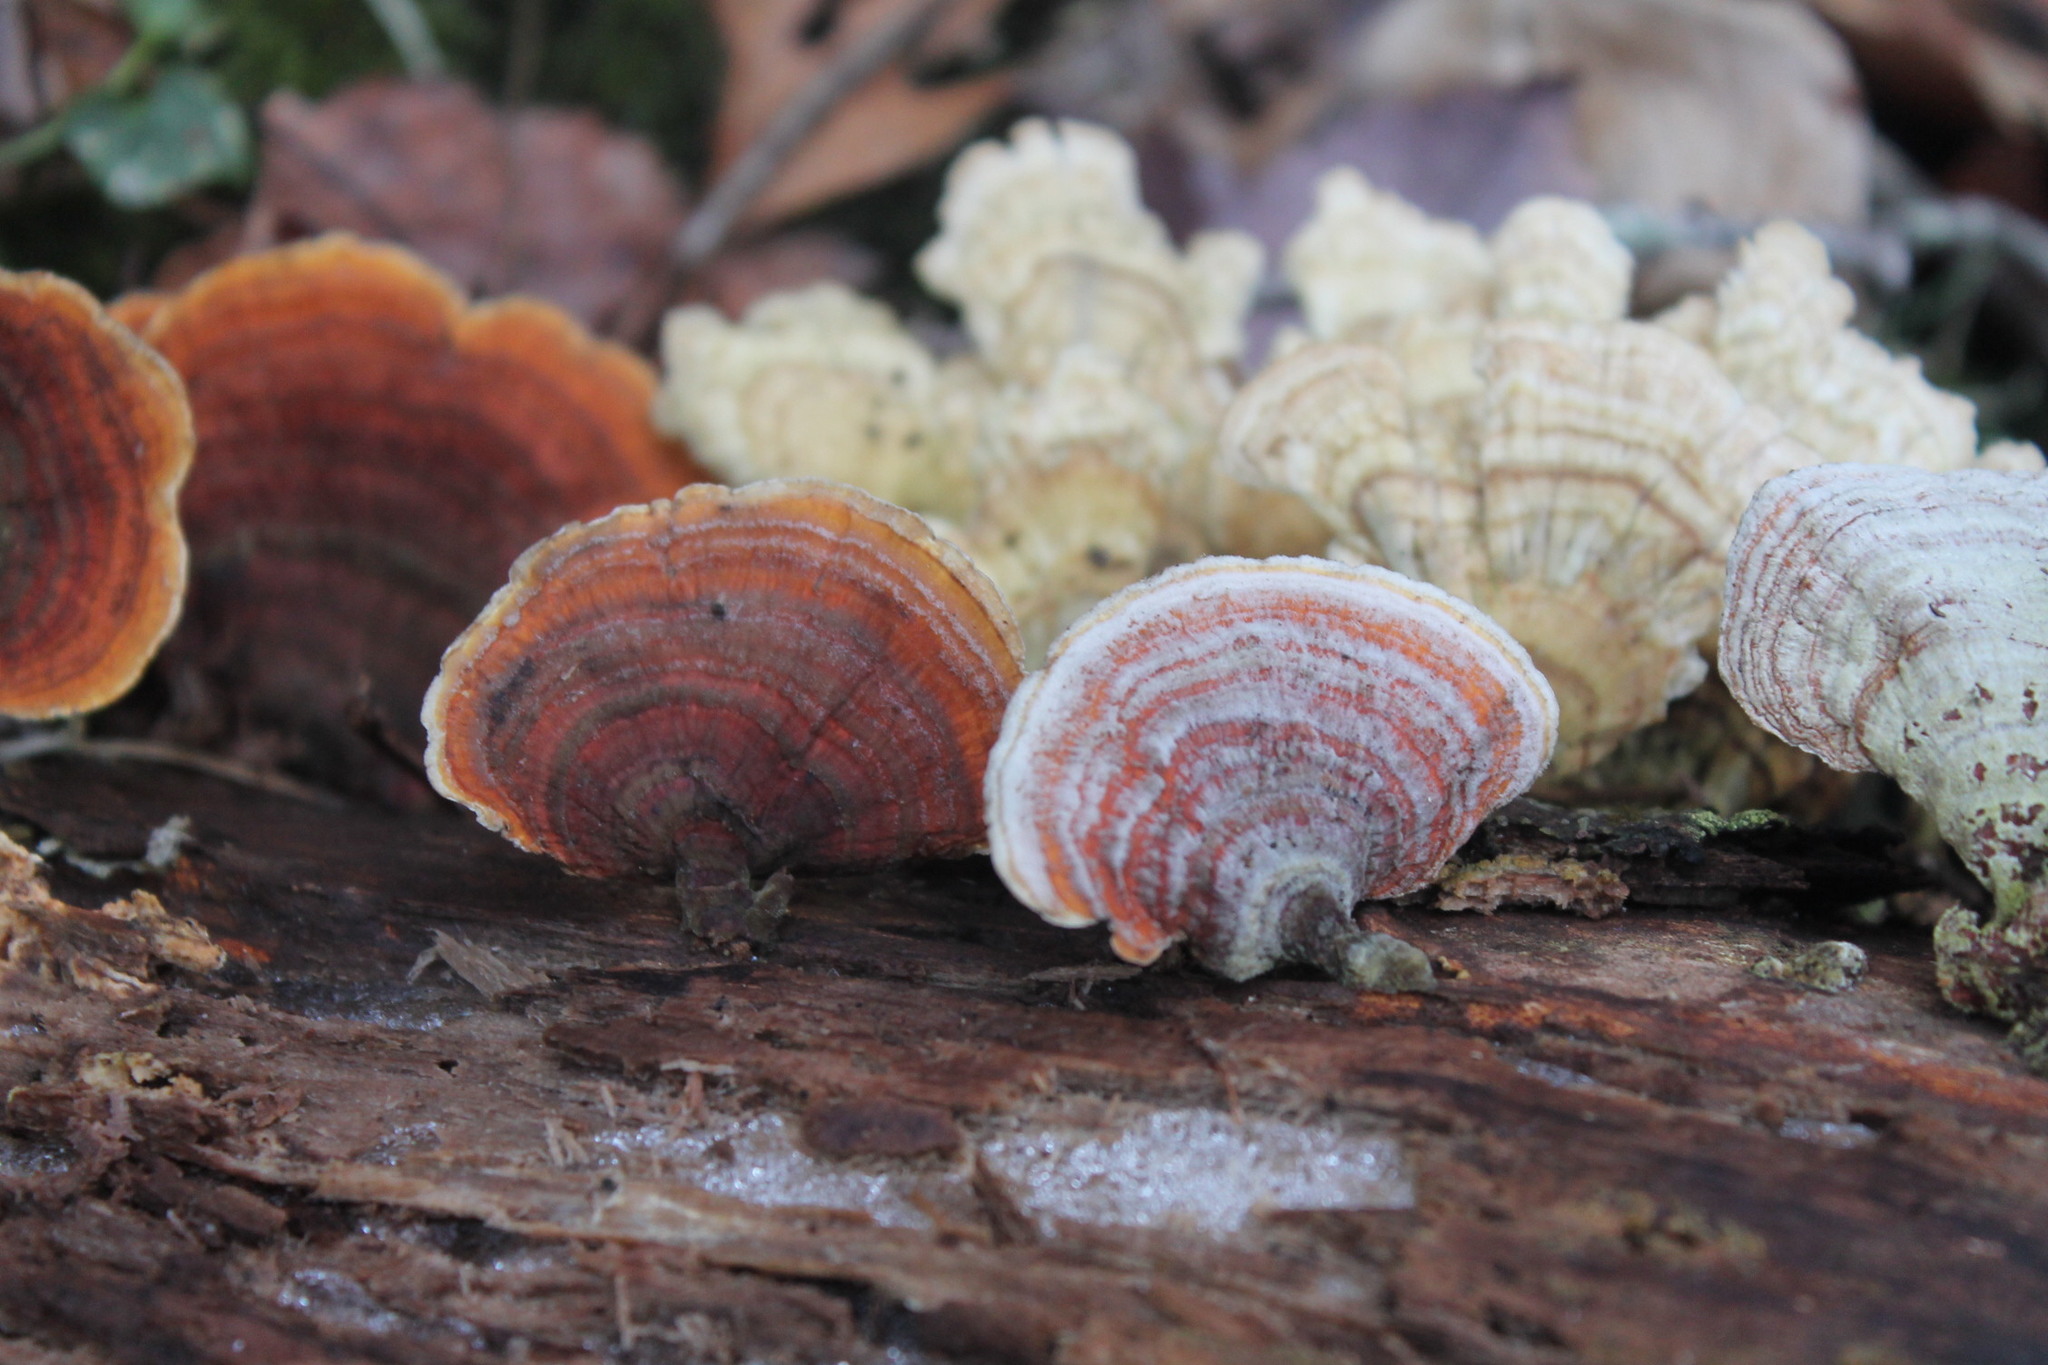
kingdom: Fungi
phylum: Basidiomycota
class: Agaricomycetes
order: Russulales
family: Stereaceae
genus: Stereum
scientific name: Stereum lobatum
